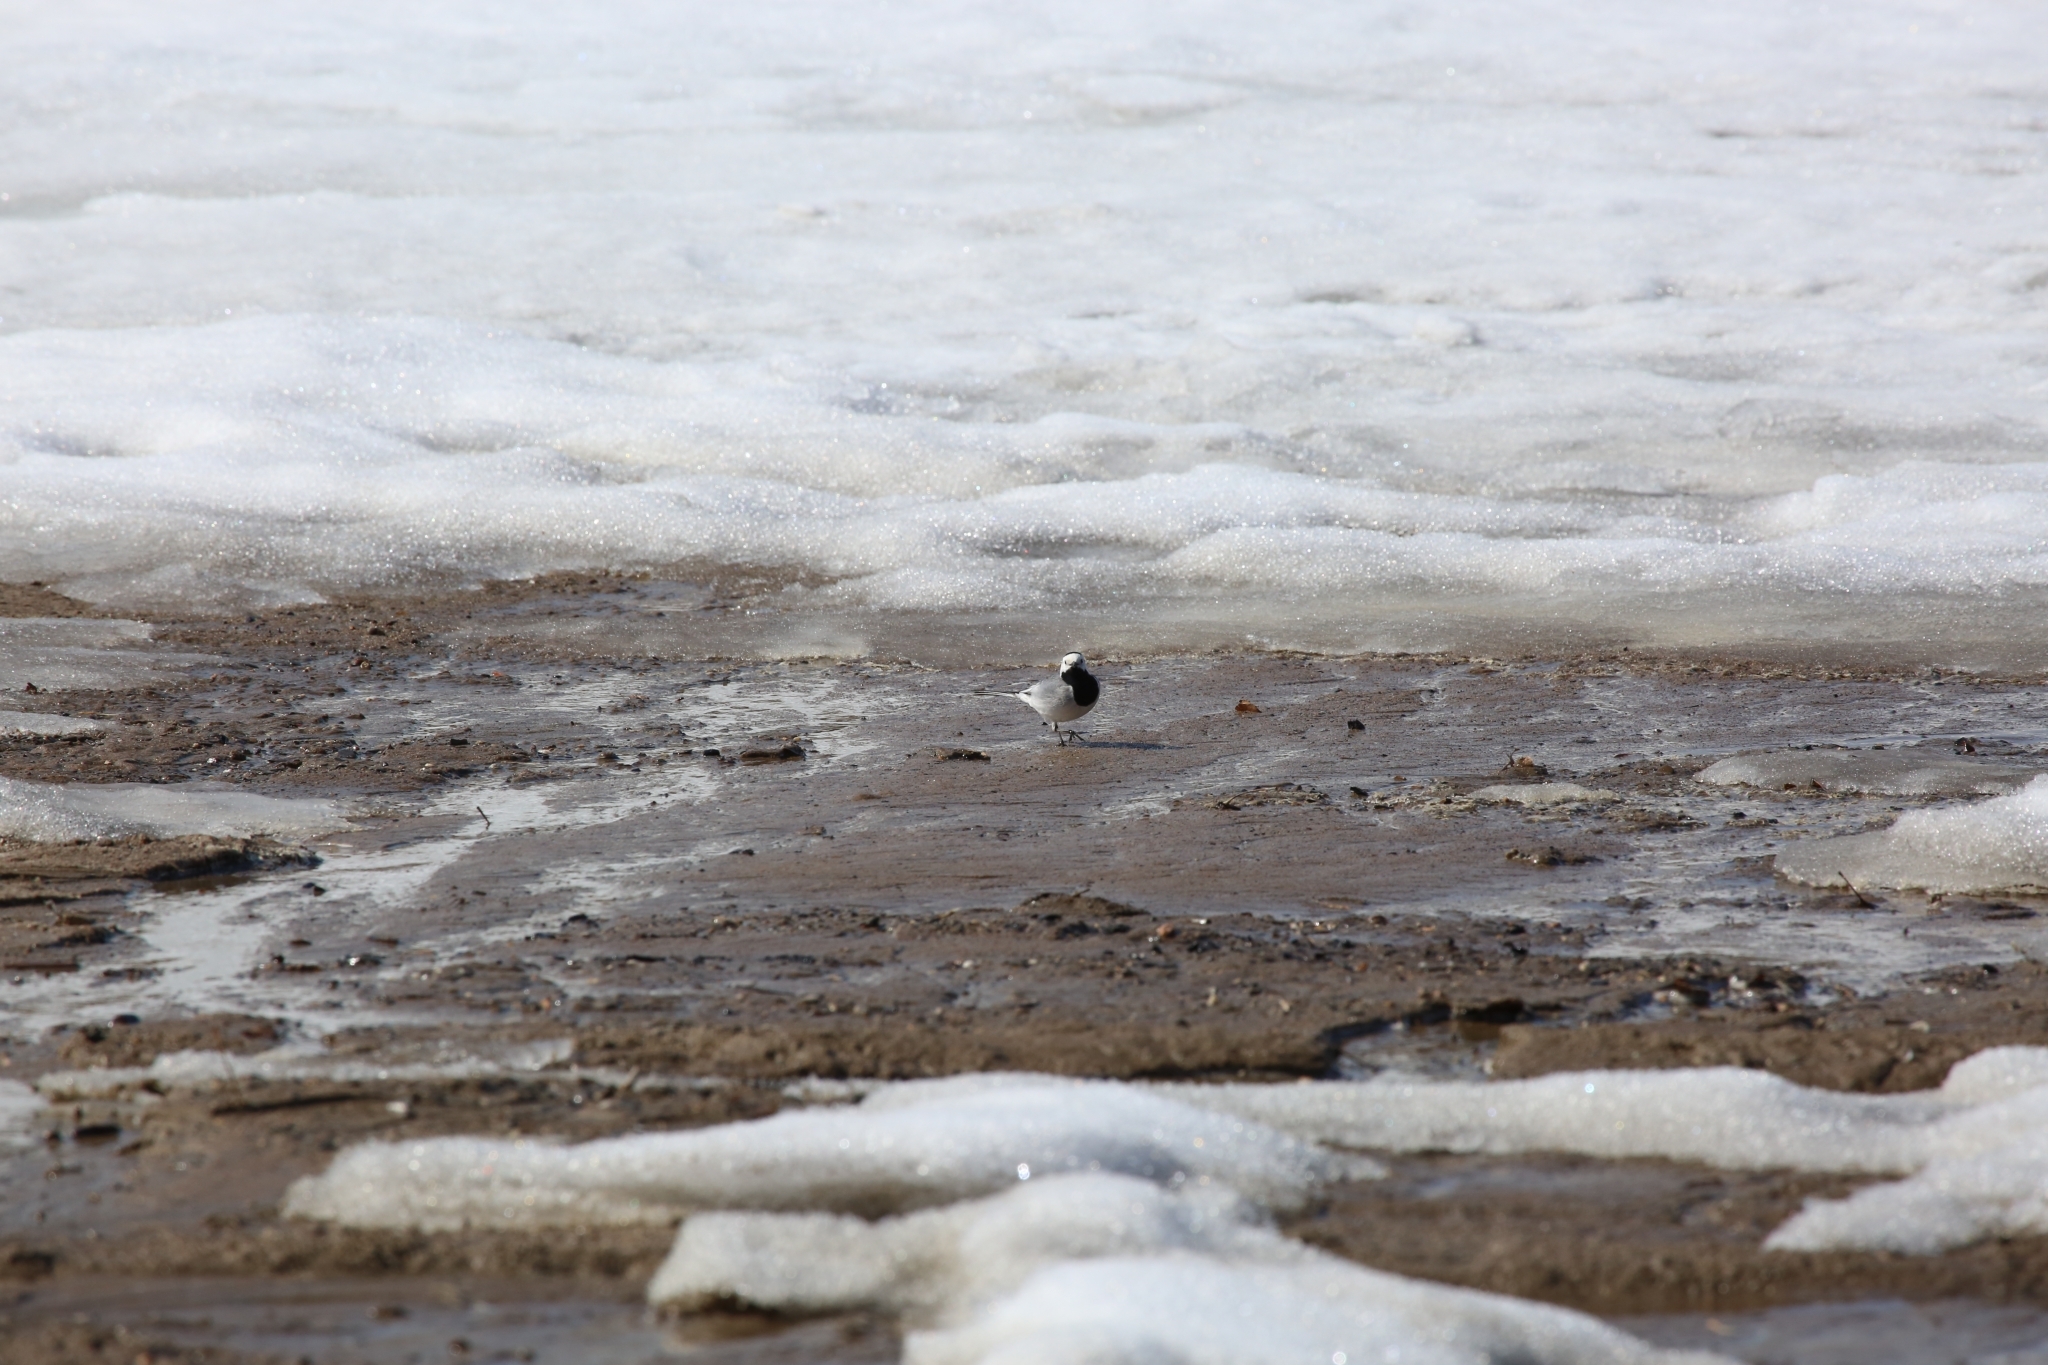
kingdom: Animalia
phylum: Chordata
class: Aves
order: Passeriformes
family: Motacillidae
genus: Motacilla
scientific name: Motacilla alba
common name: White wagtail
